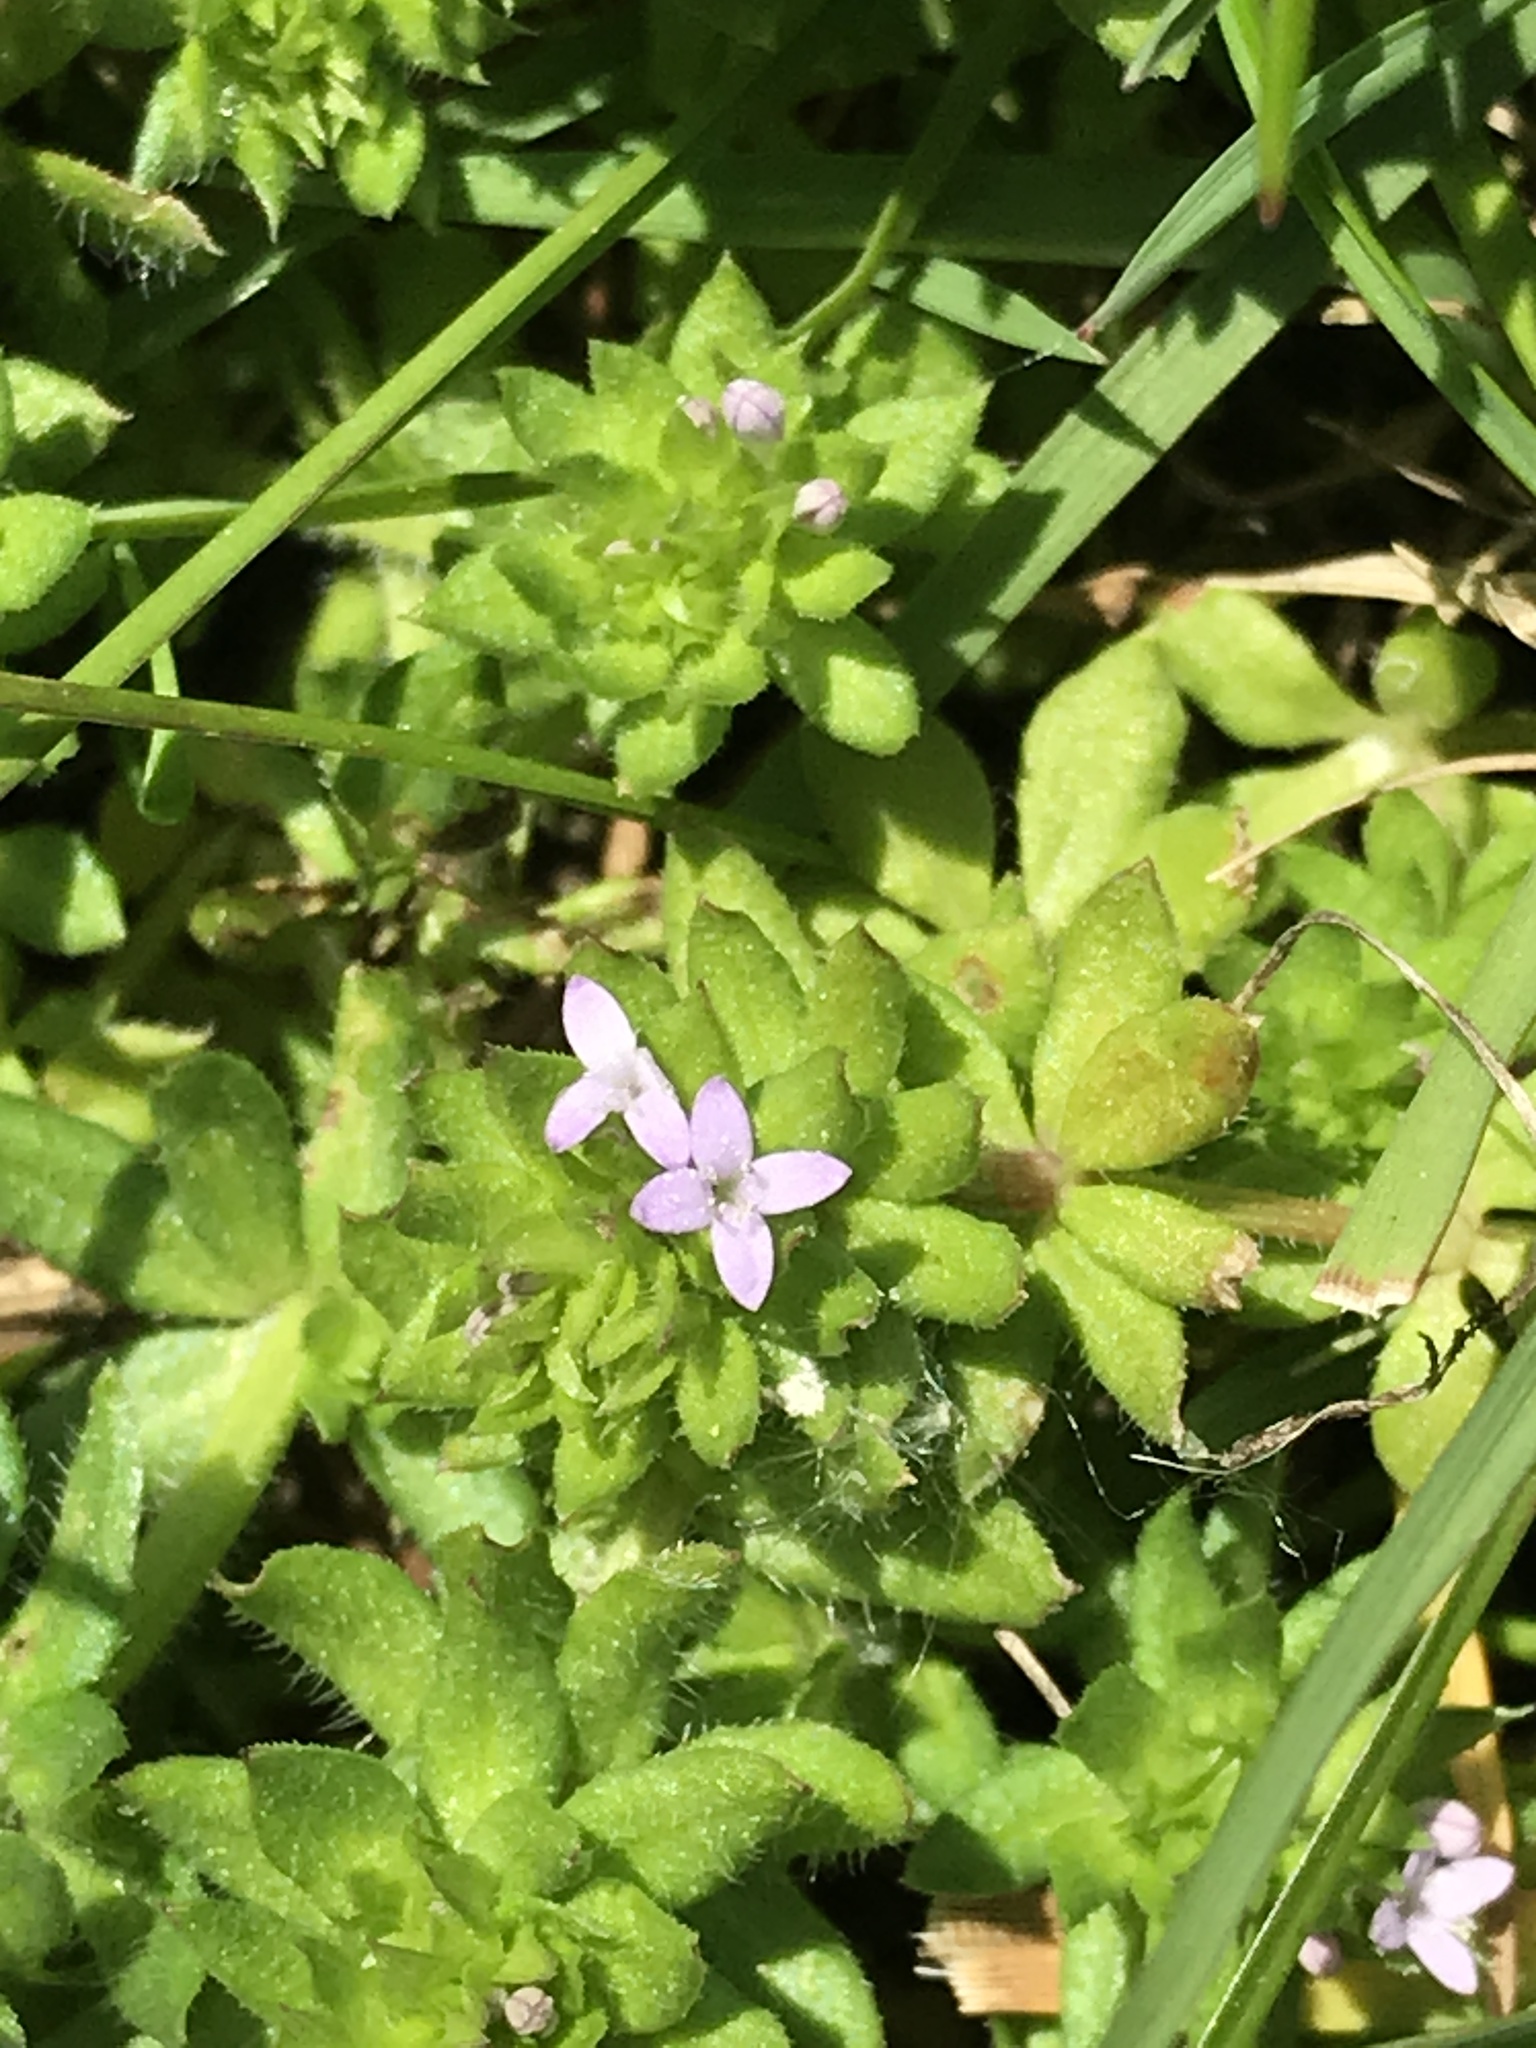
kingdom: Plantae
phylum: Tracheophyta
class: Magnoliopsida
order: Gentianales
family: Rubiaceae
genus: Sherardia
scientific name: Sherardia arvensis
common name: Field madder
